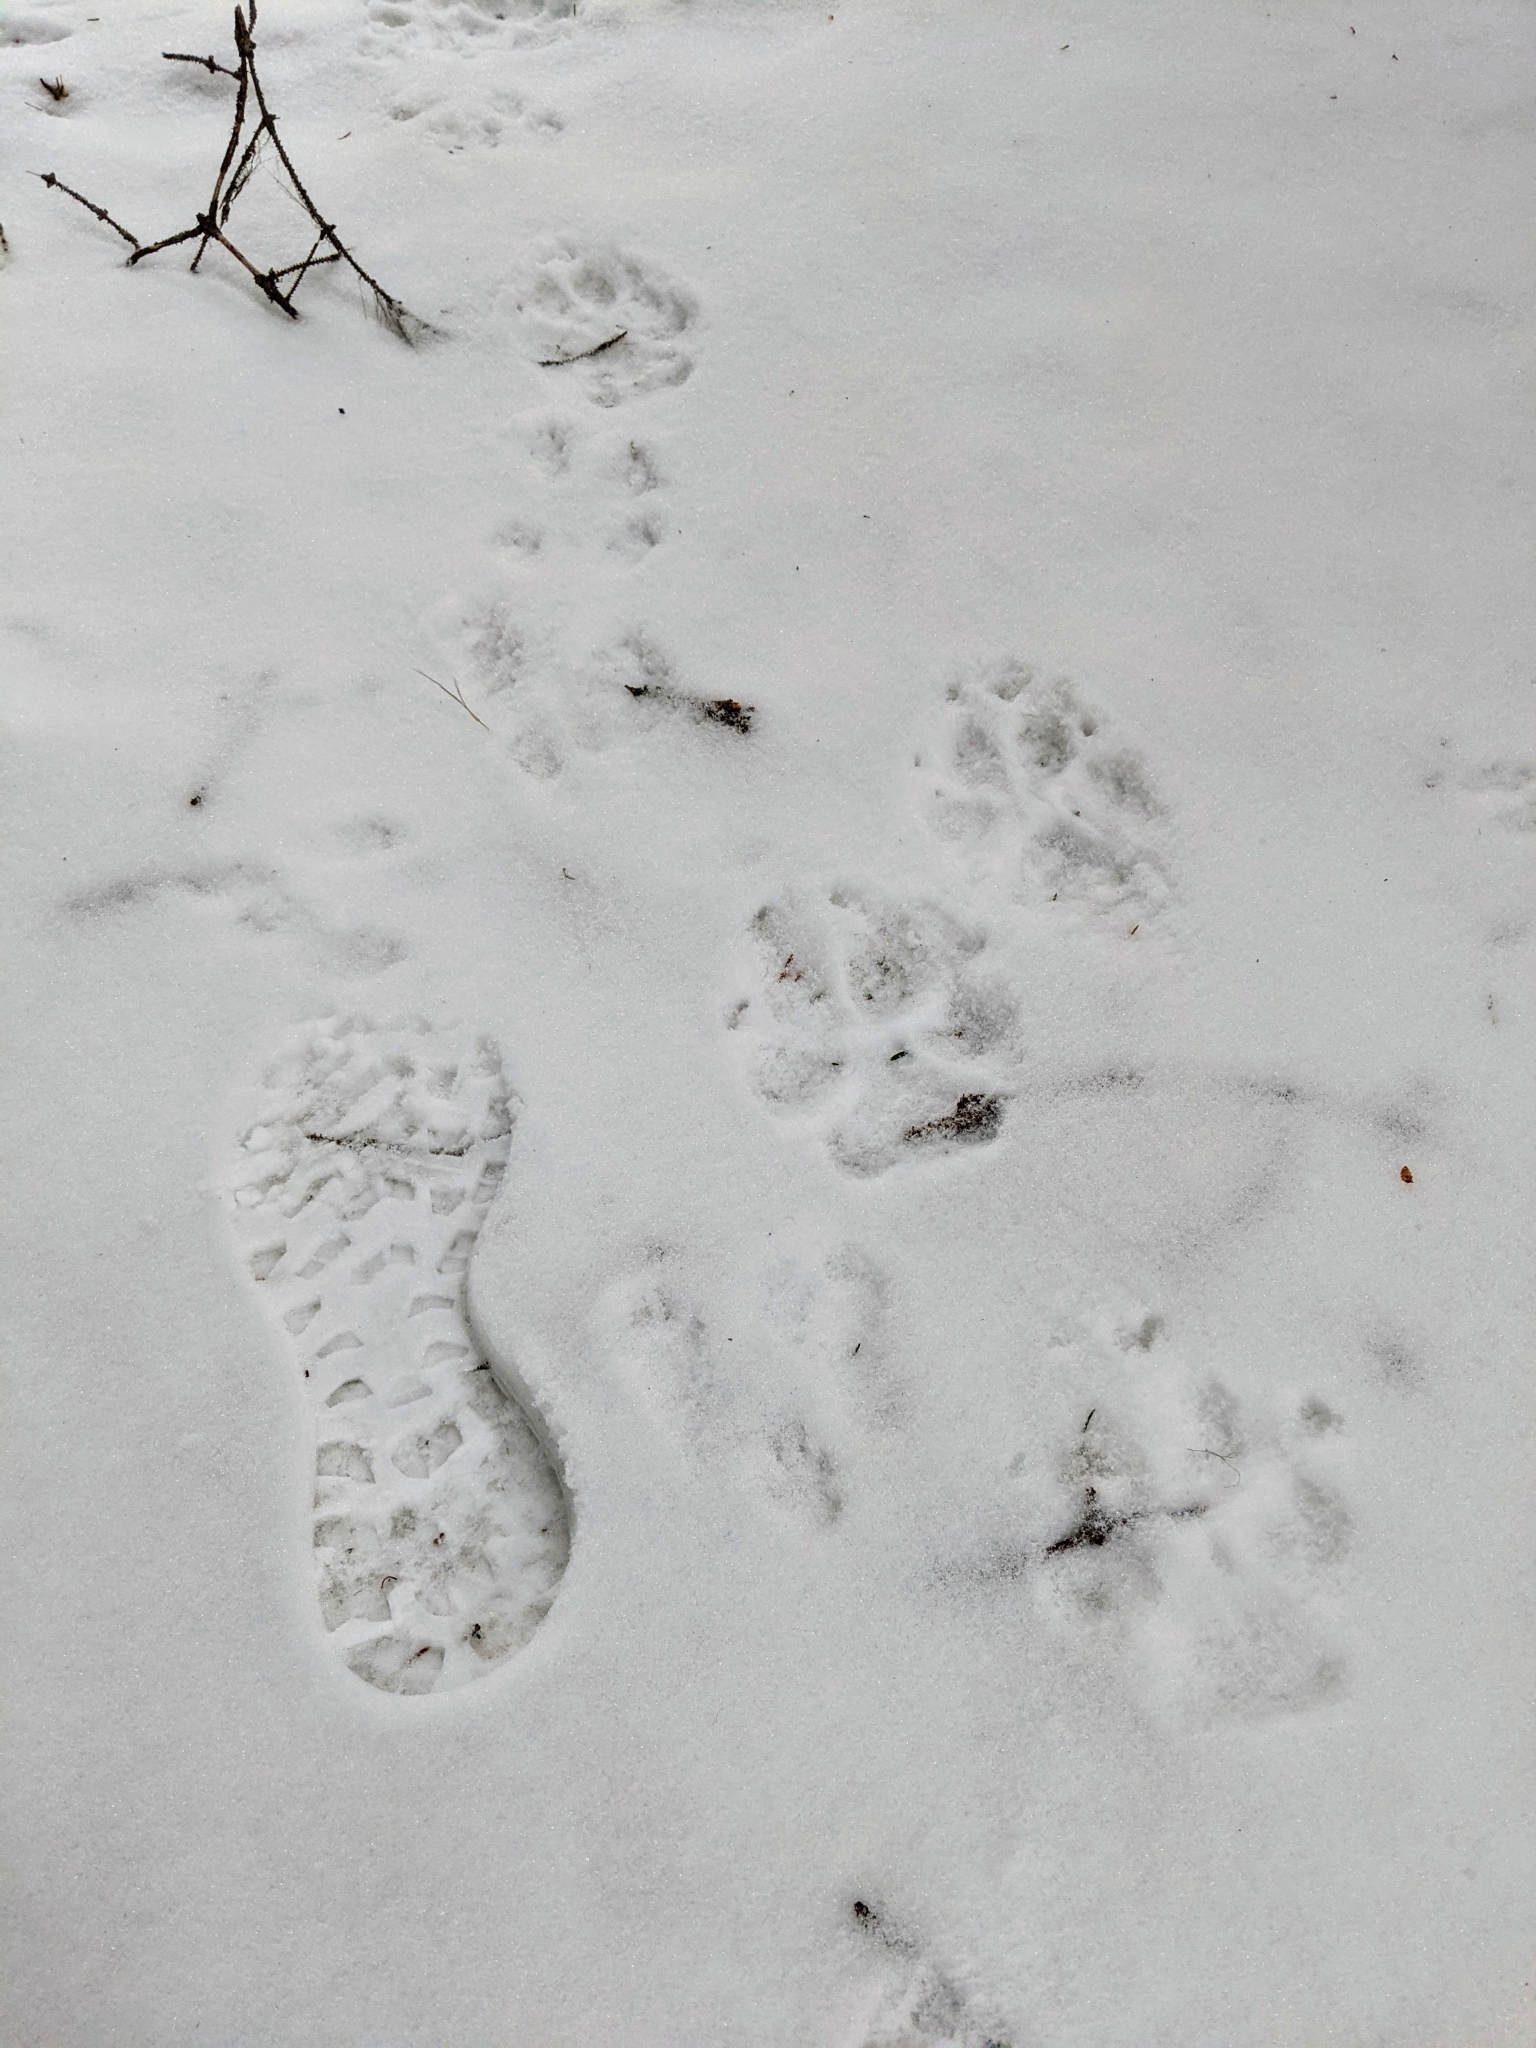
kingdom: Animalia
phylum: Chordata
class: Mammalia
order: Carnivora
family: Canidae
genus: Canis
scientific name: Canis lupus
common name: Gray wolf
